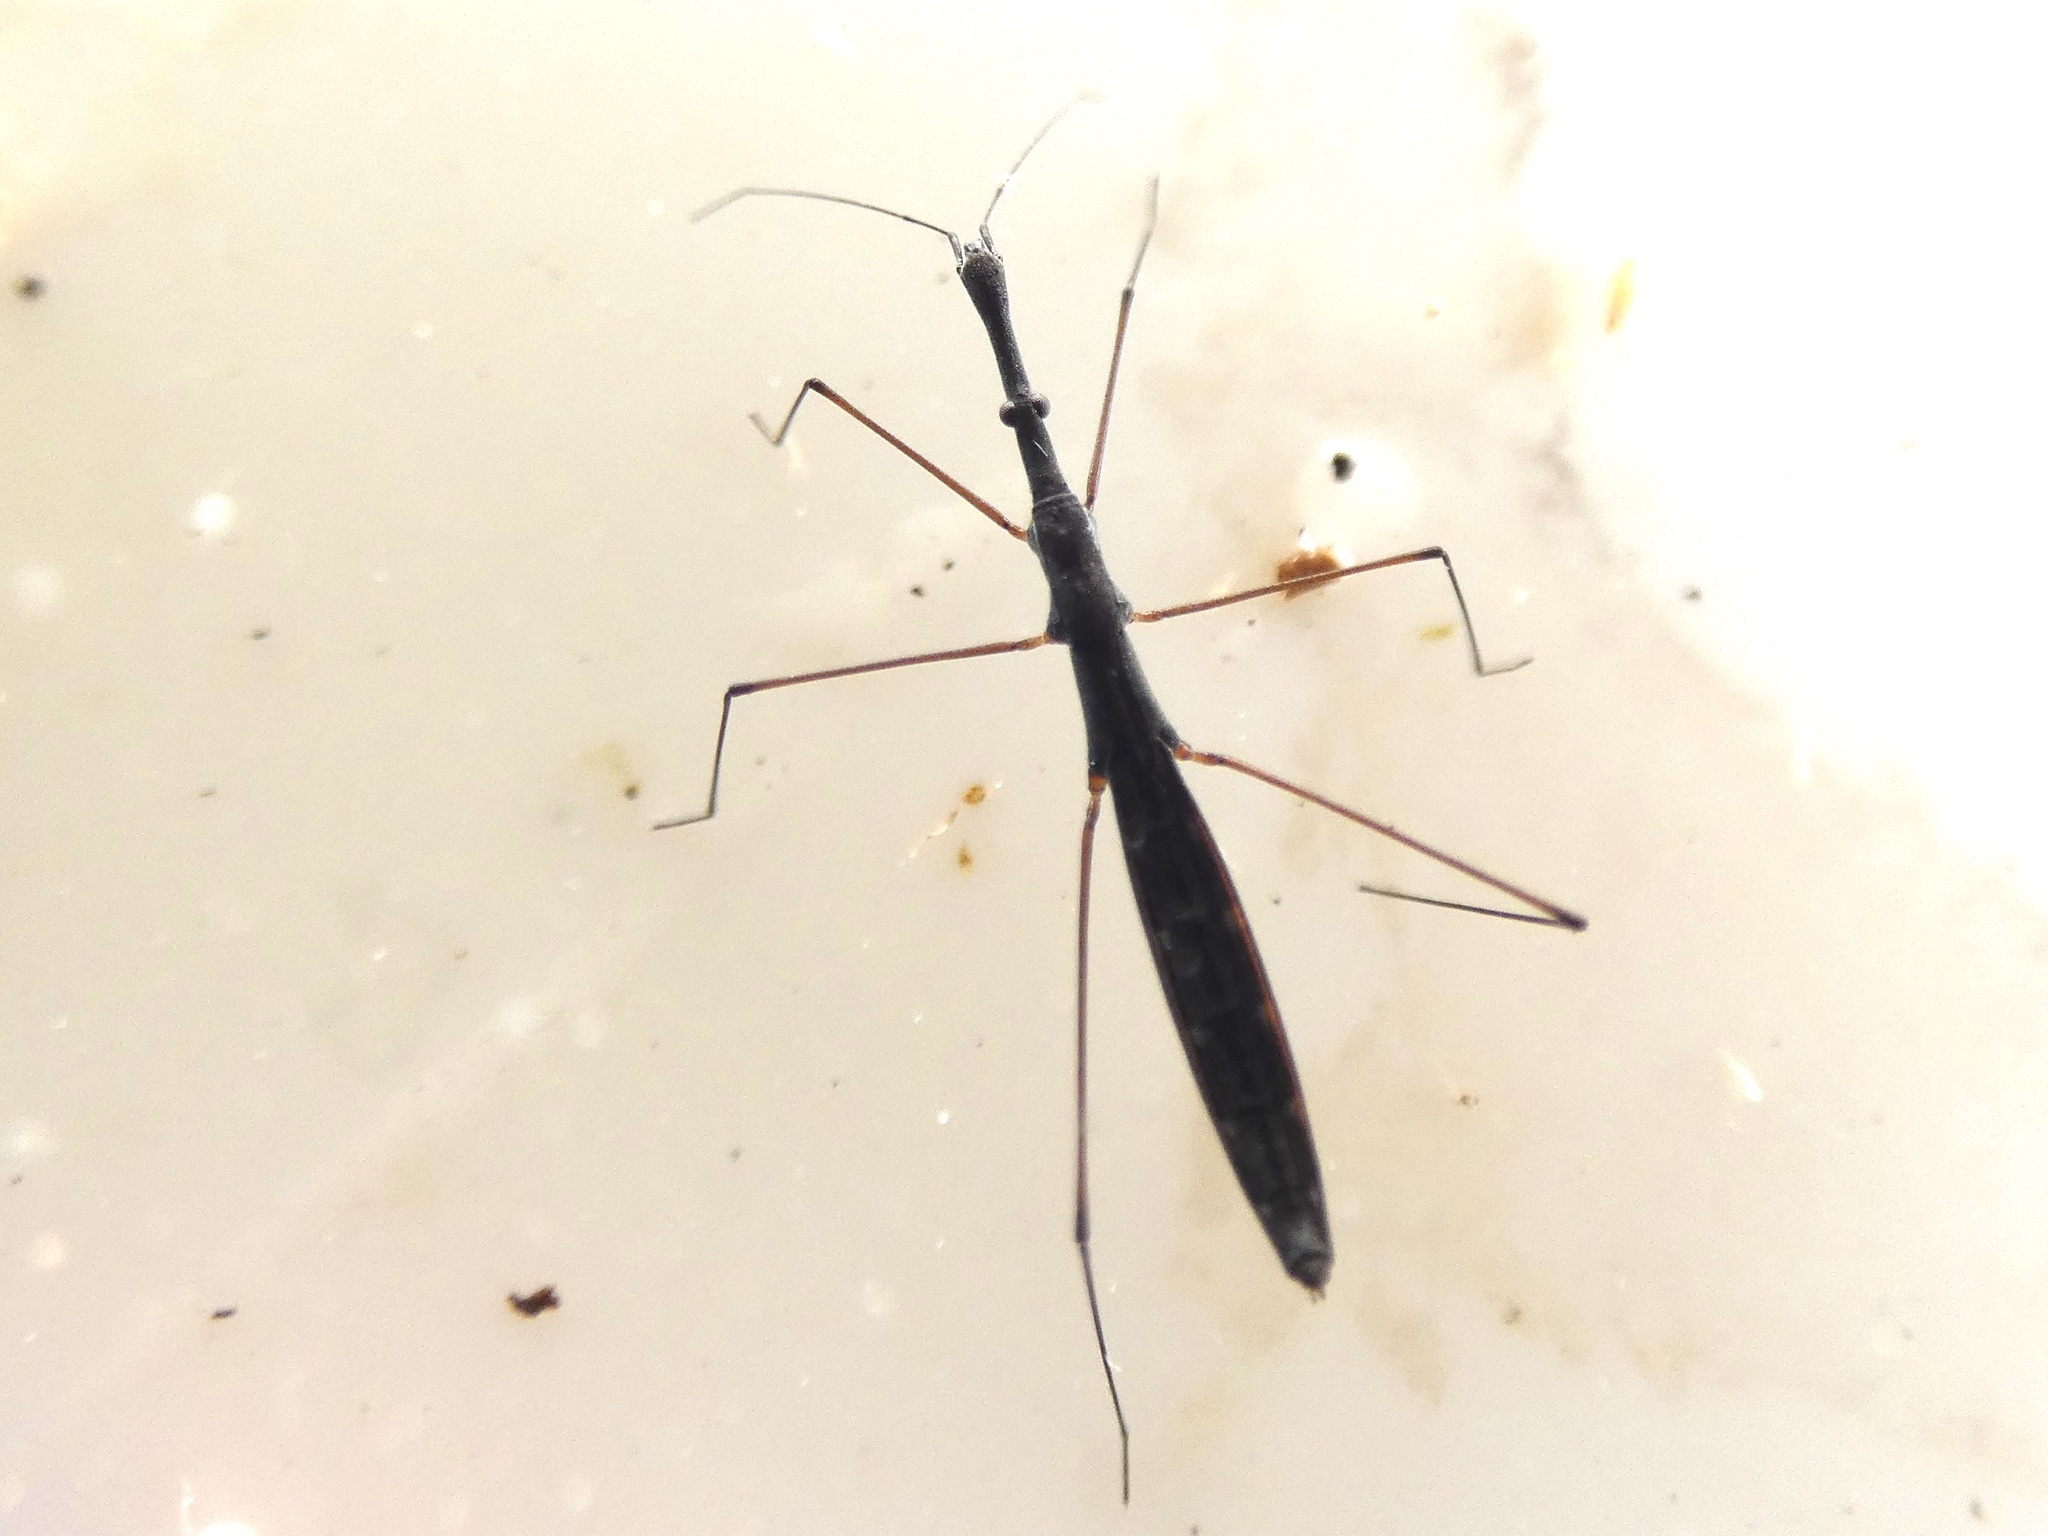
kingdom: Animalia
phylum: Arthropoda
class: Insecta
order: Hemiptera
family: Hydrometridae
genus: Hydrometra
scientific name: Hydrometra stagnorum
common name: Water measurer
